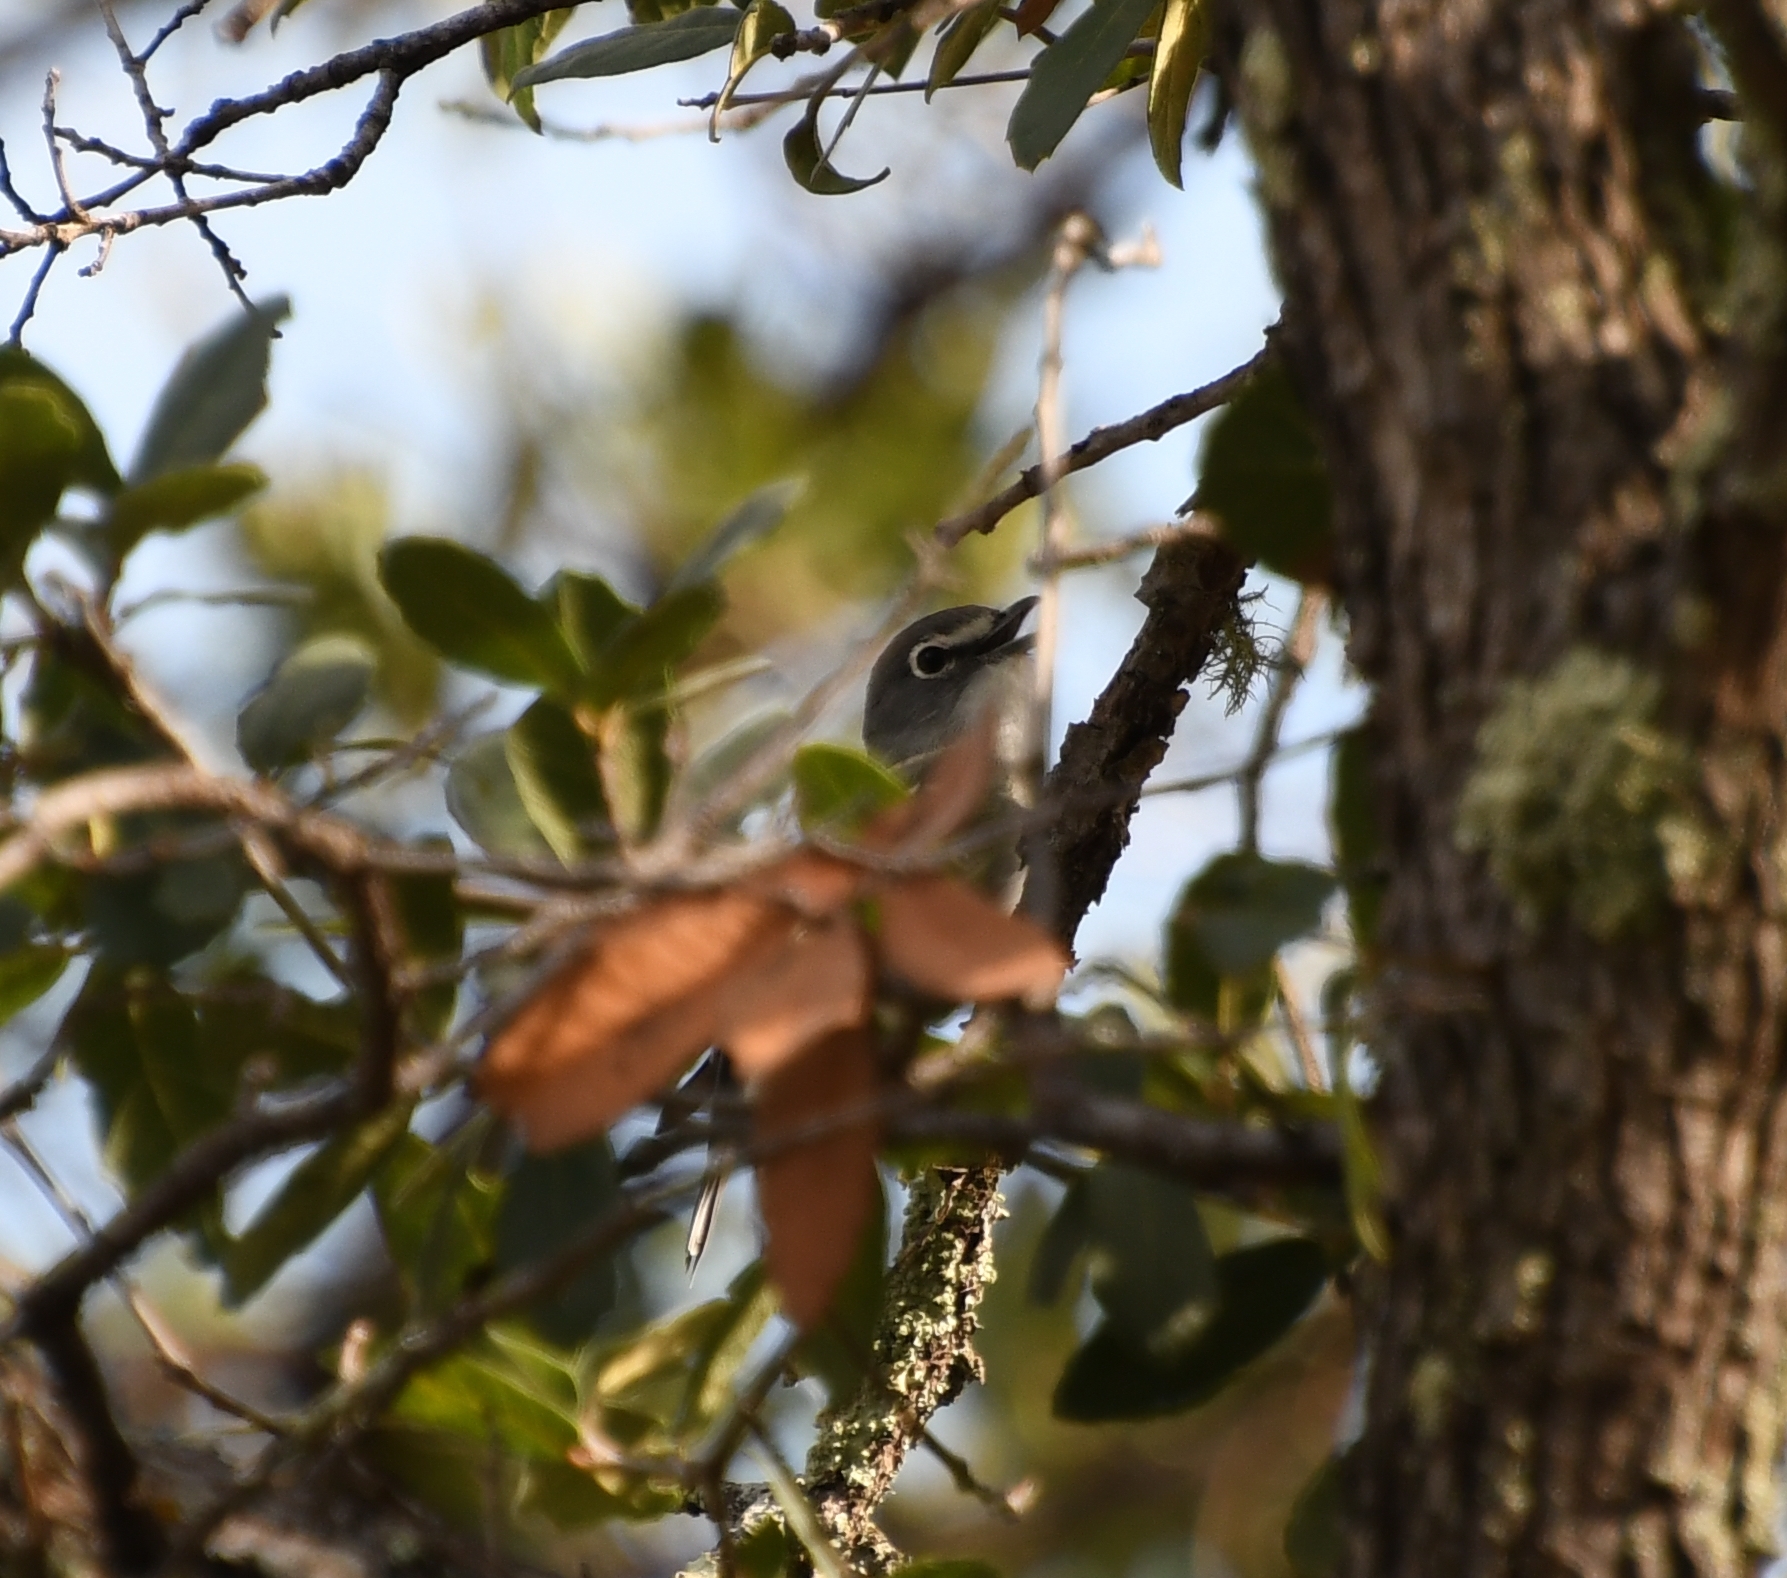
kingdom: Animalia
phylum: Chordata
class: Aves
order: Passeriformes
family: Vireonidae
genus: Vireo
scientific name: Vireo plumbeus
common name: Plumbeous vireo
